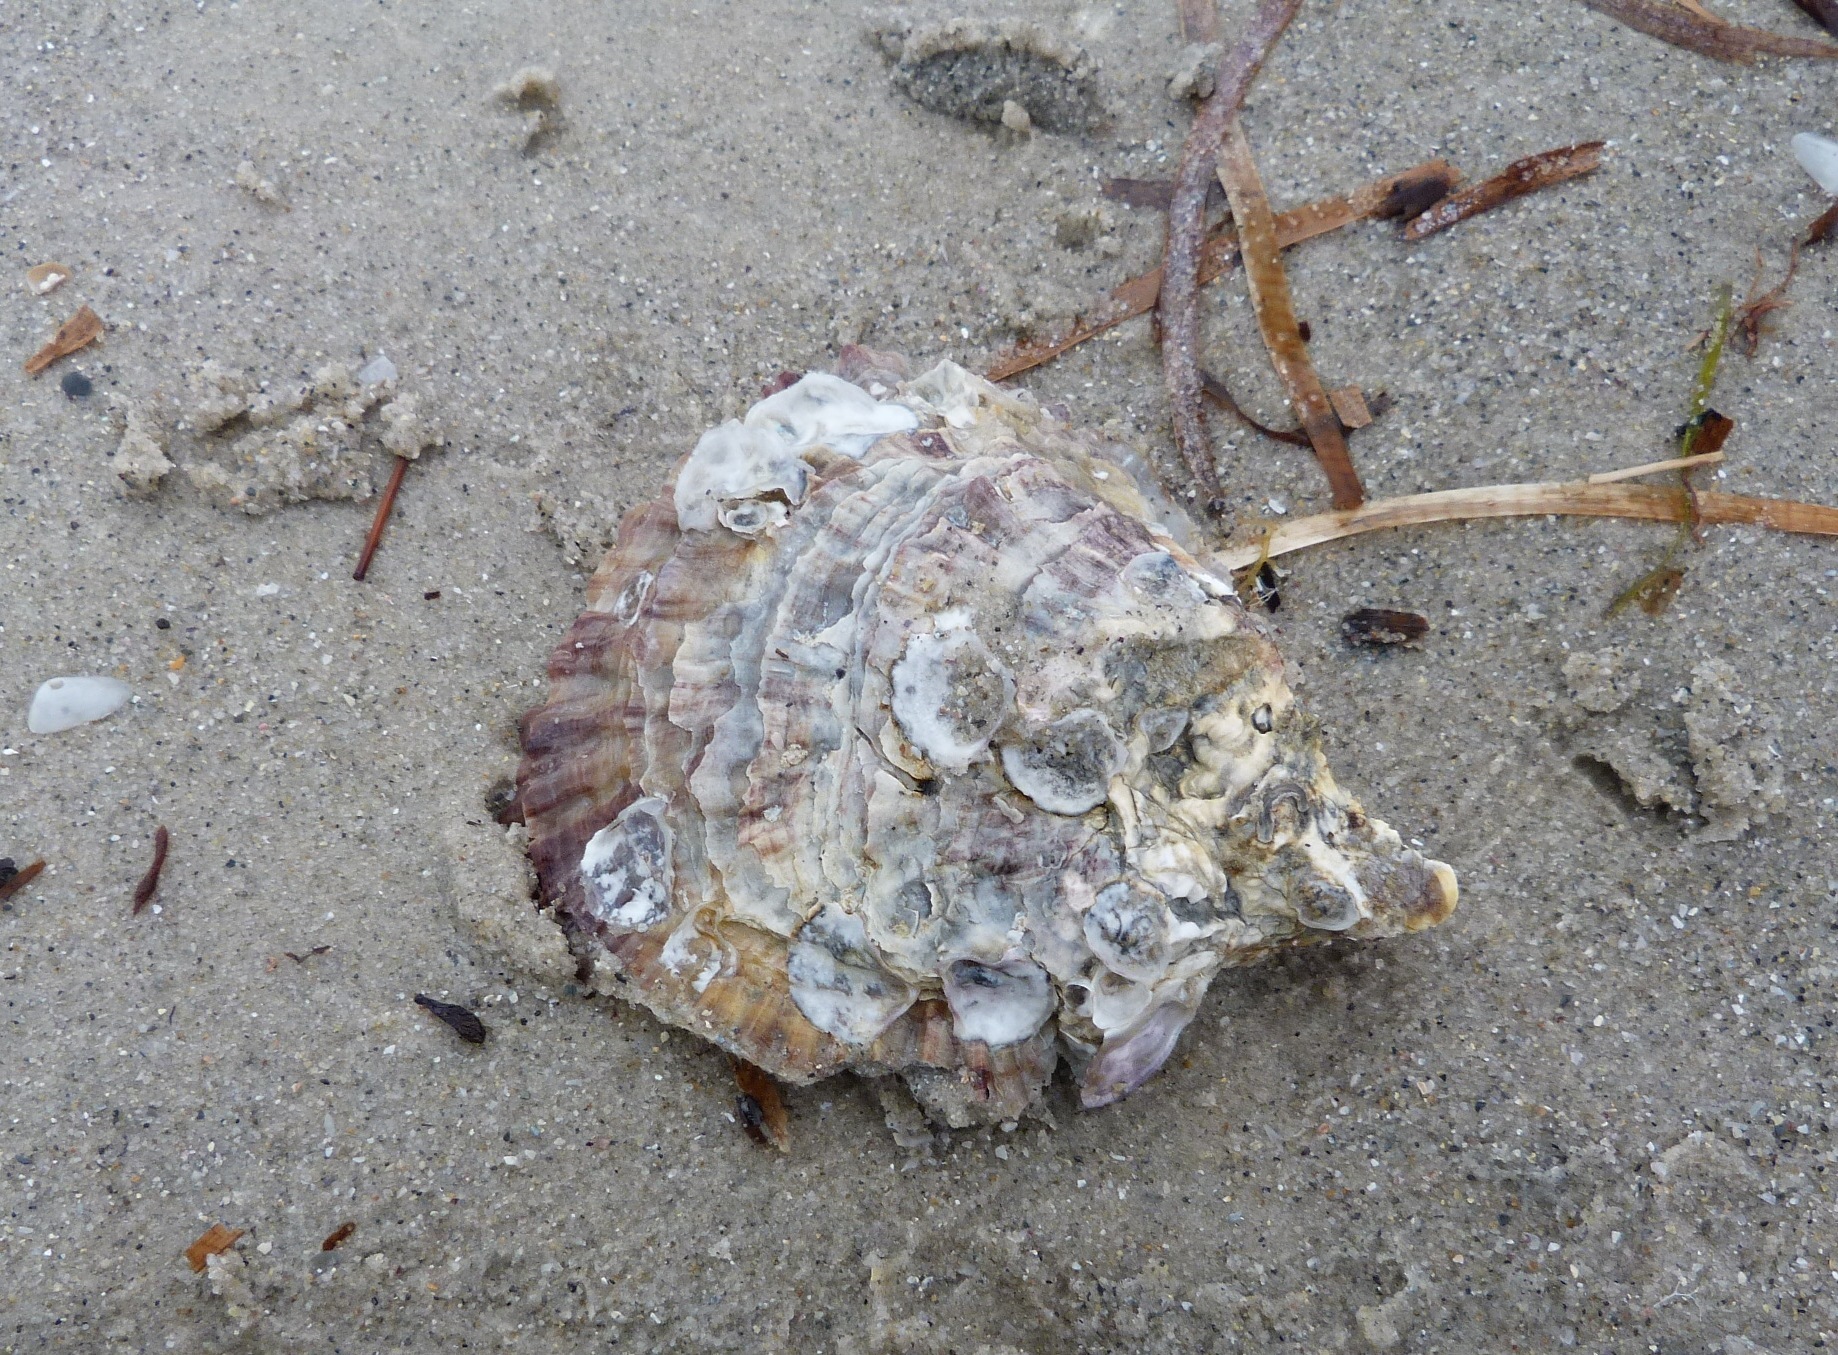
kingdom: Animalia
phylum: Mollusca
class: Bivalvia
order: Ostreida
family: Ostreidae
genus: Ostrea
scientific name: Ostrea angasi
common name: Angasi oyster
